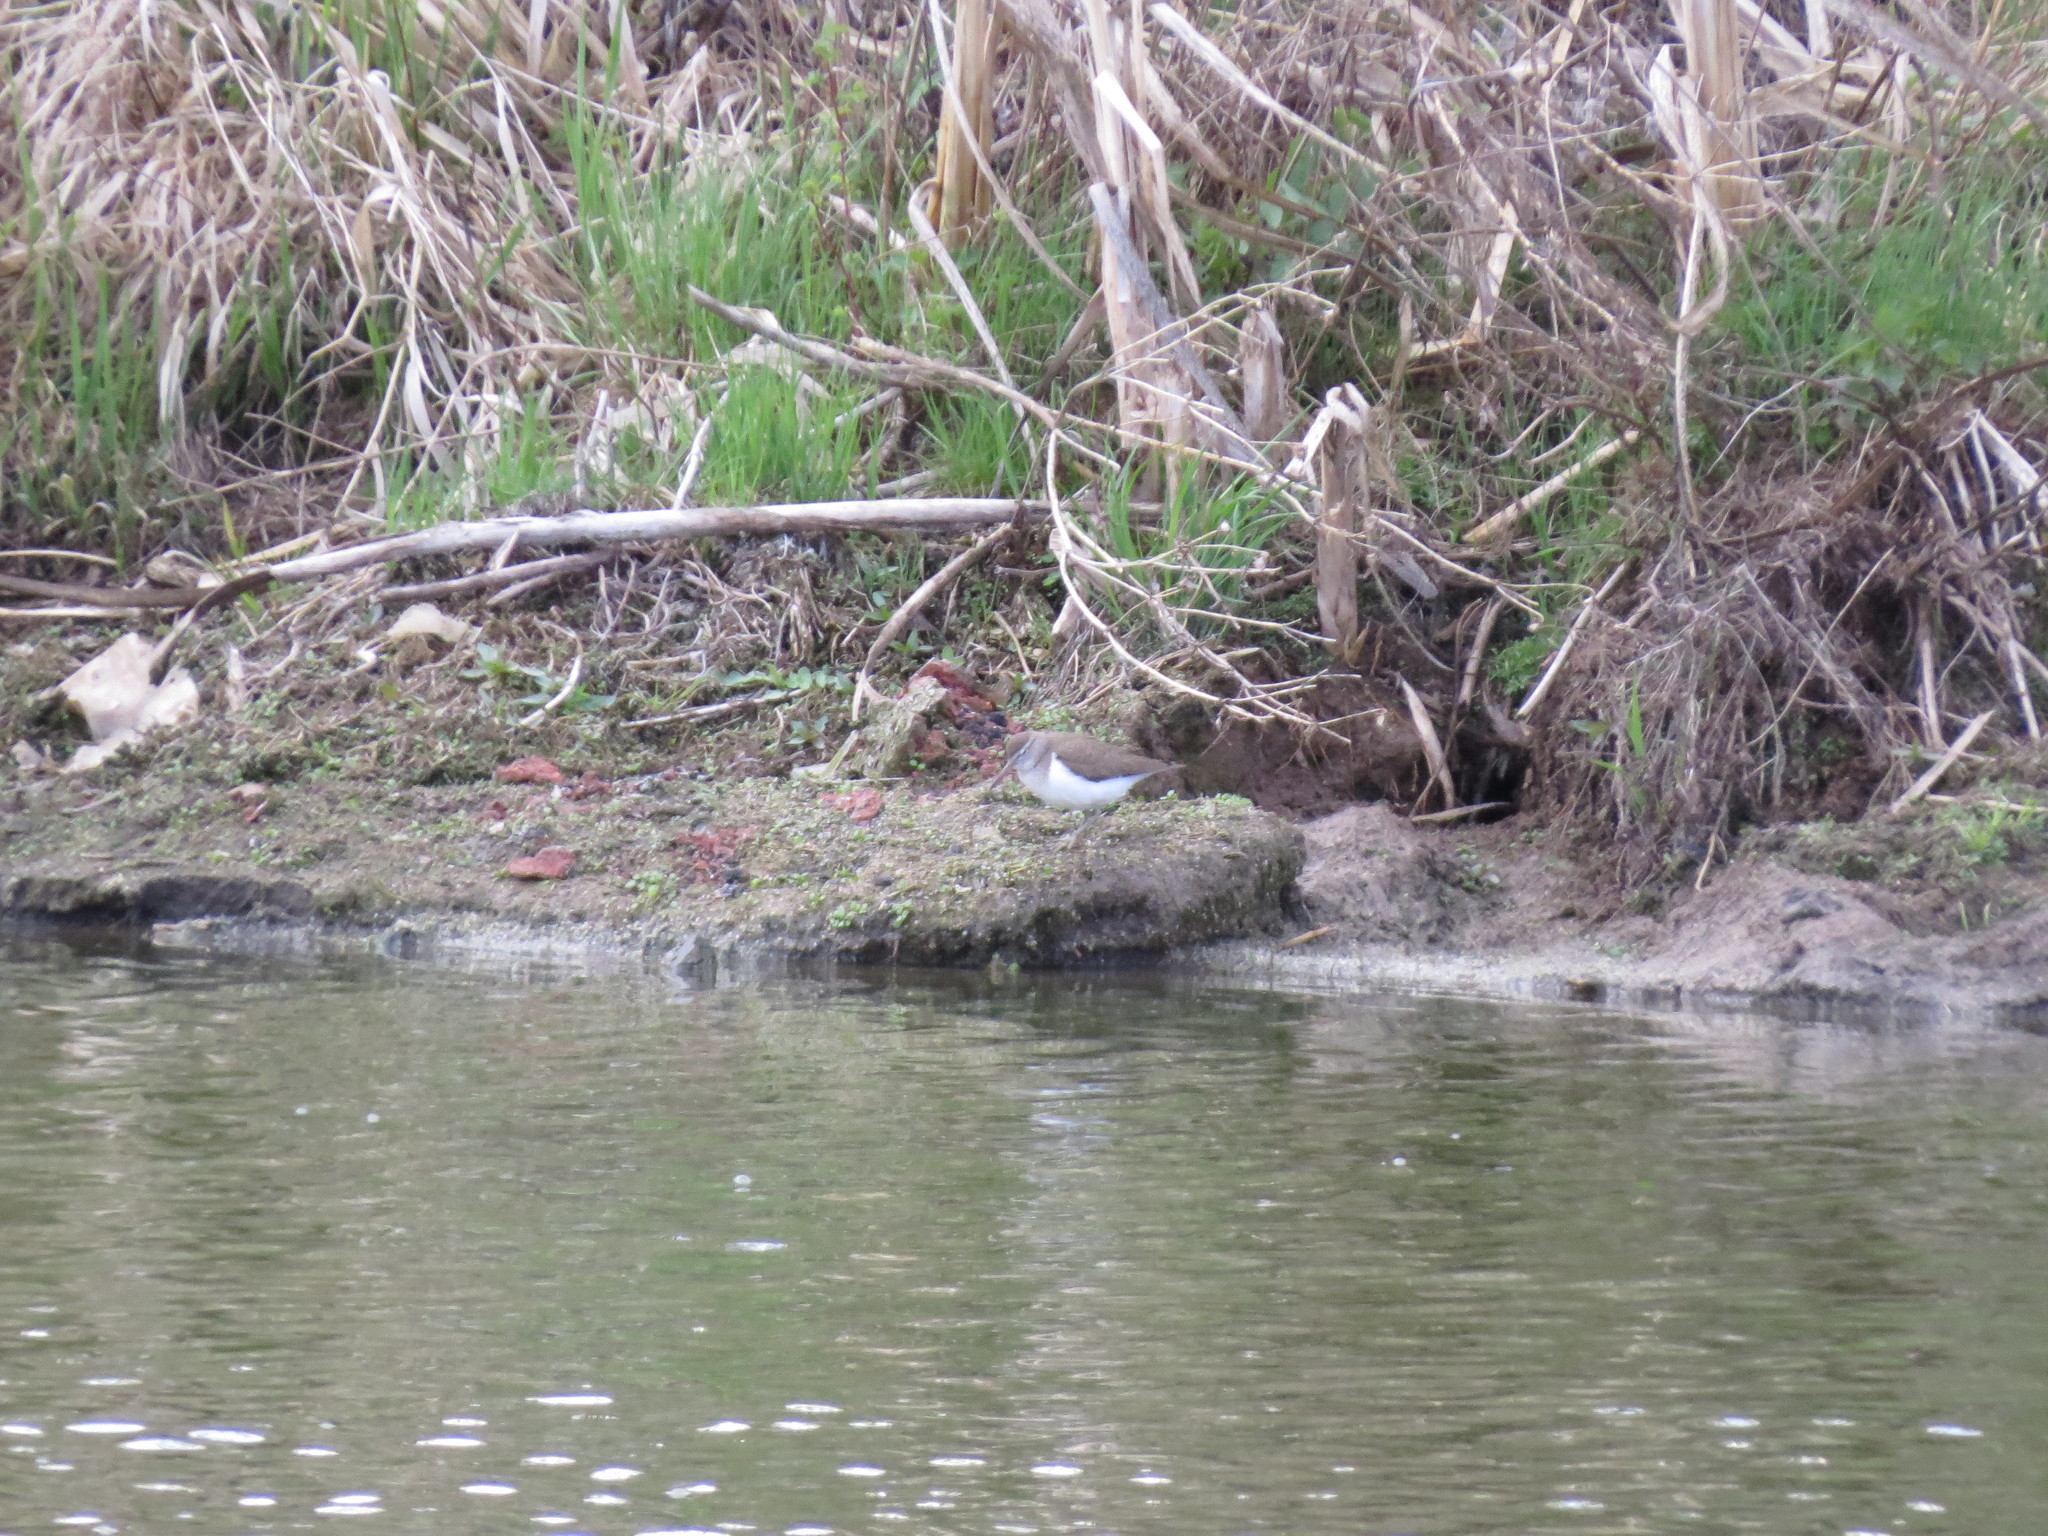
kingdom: Animalia
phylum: Chordata
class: Aves
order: Charadriiformes
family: Scolopacidae
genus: Actitis
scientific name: Actitis hypoleucos
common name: Common sandpiper
